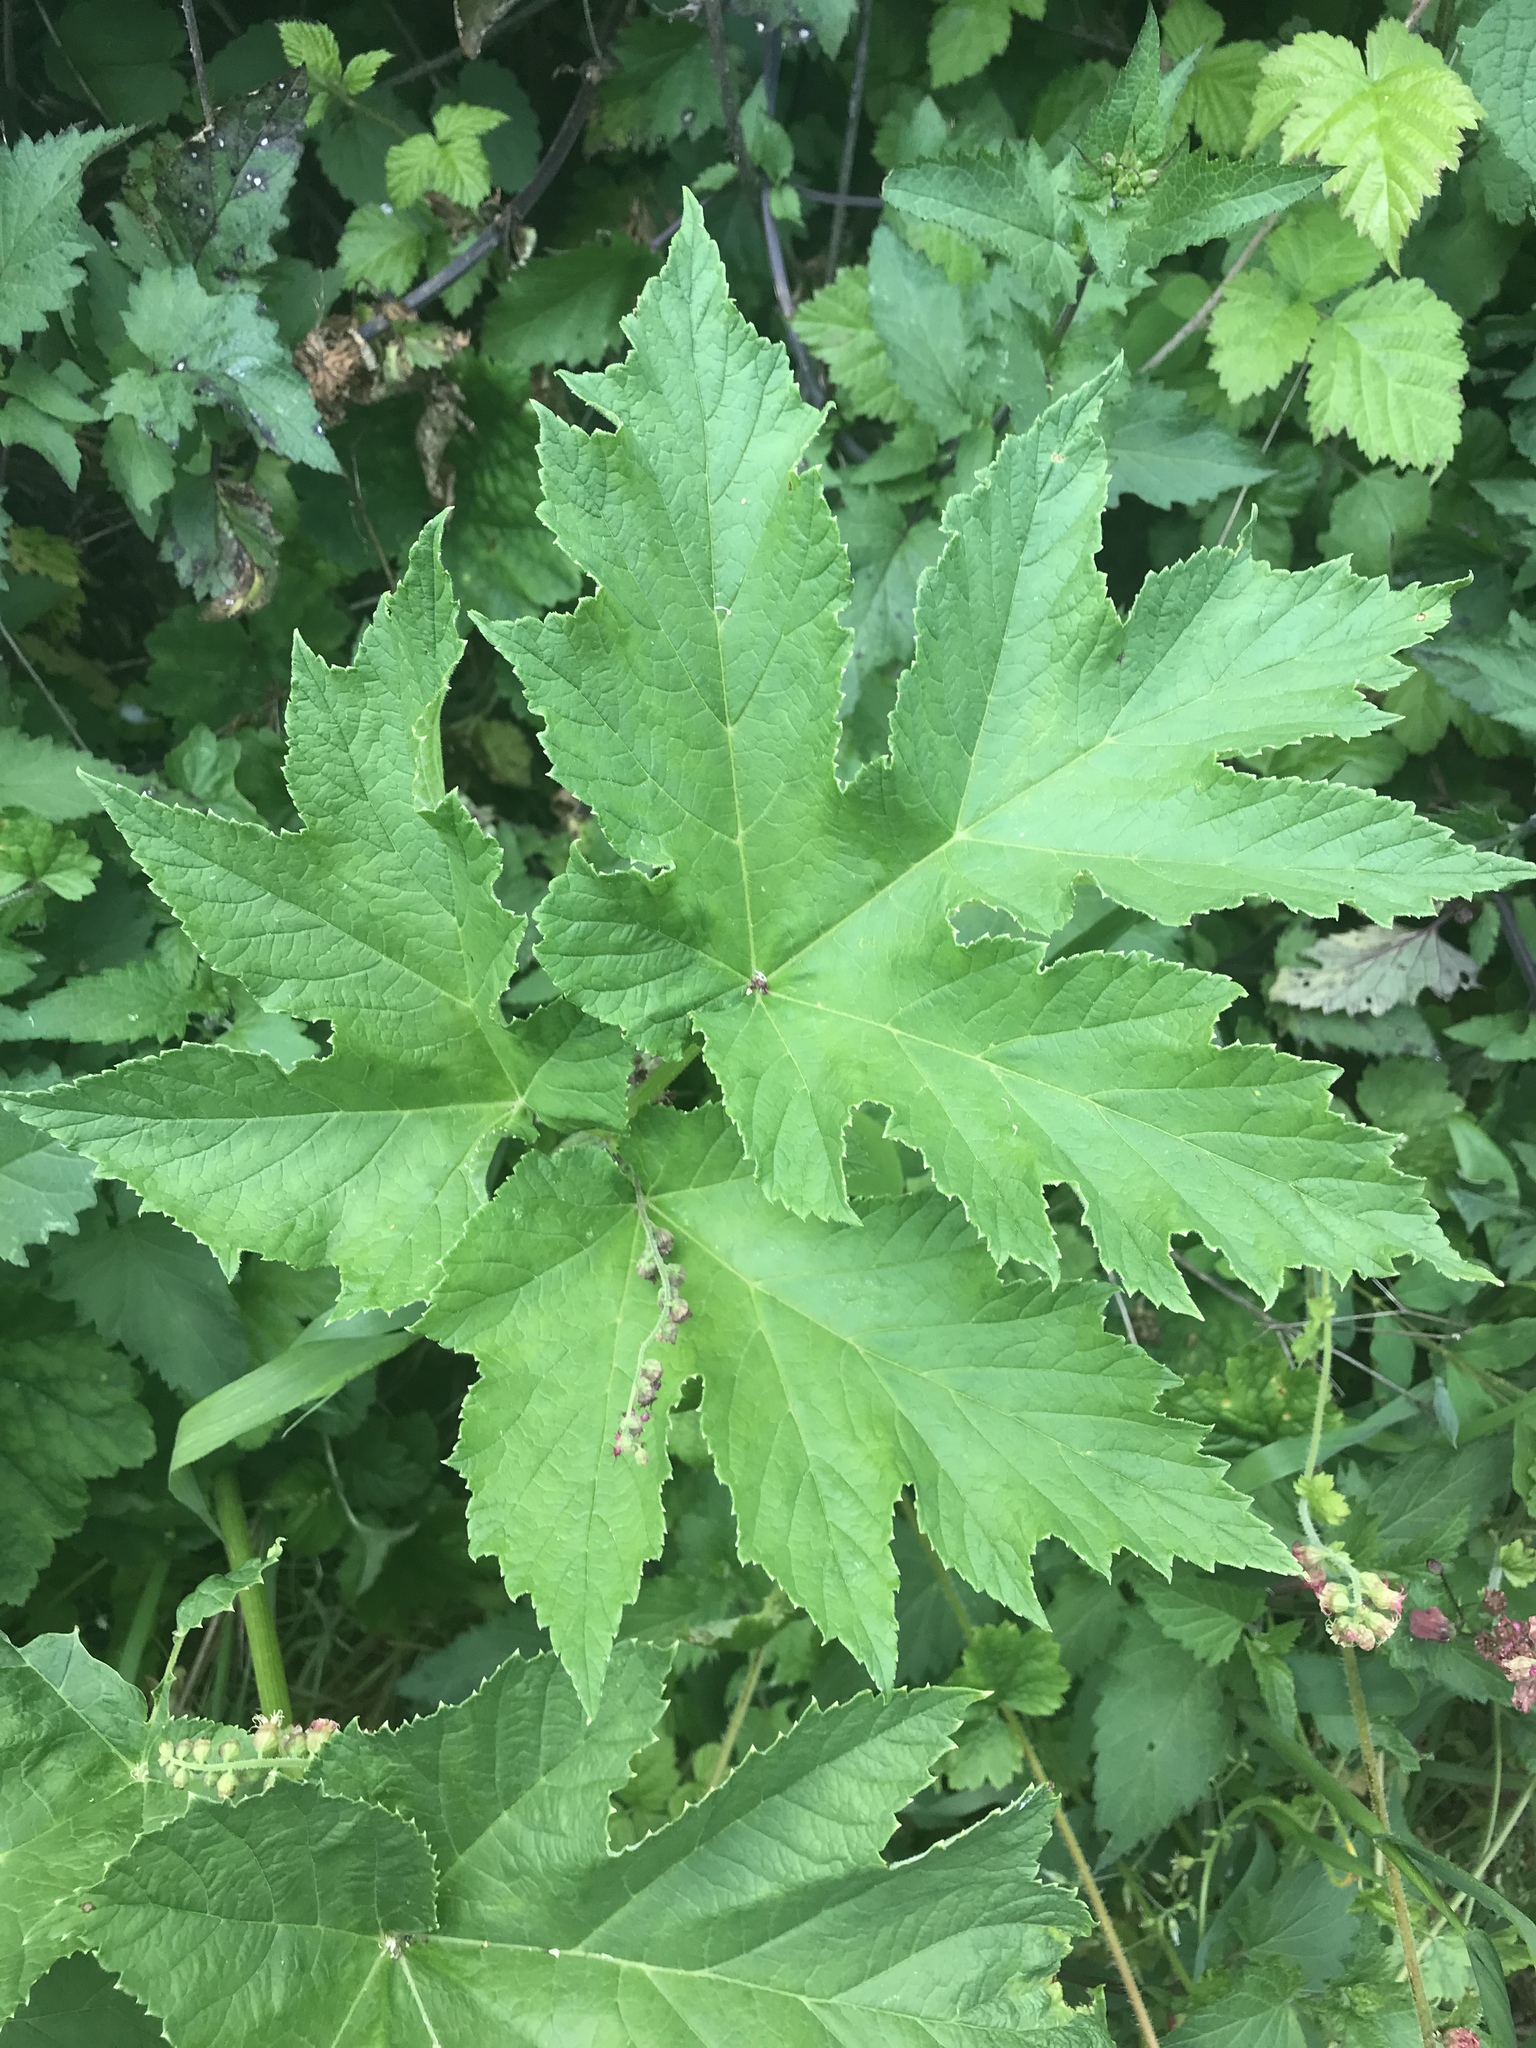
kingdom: Plantae
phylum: Tracheophyta
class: Magnoliopsida
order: Apiales
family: Apiaceae
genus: Heracleum
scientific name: Heracleum maximum
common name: American cow parsnip
